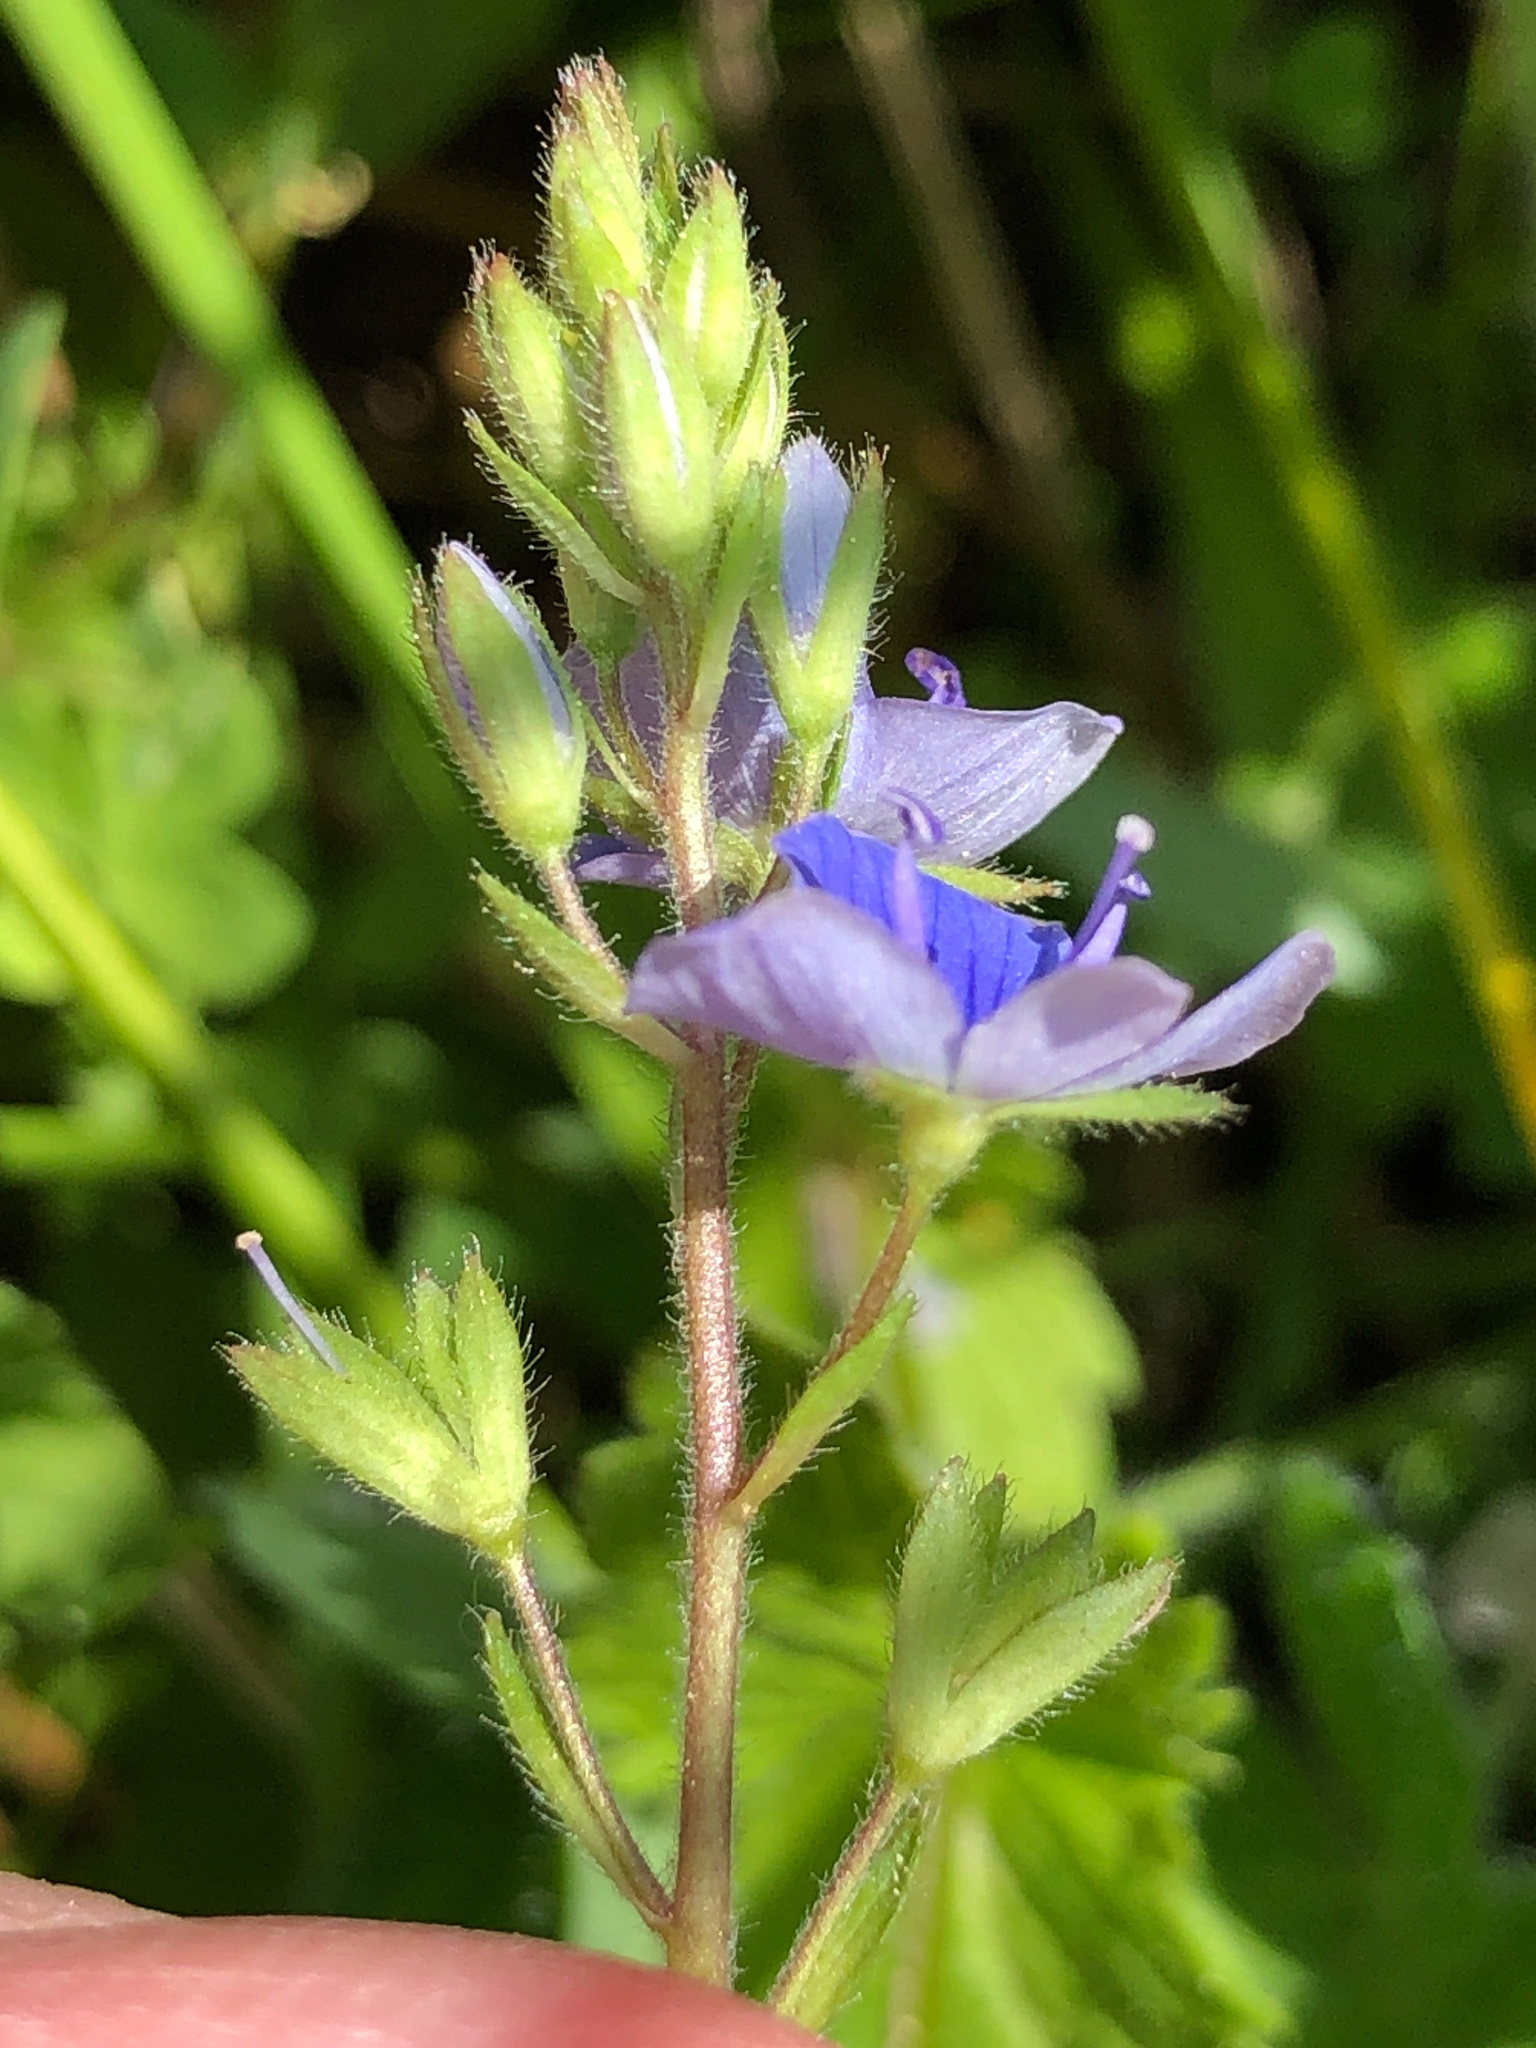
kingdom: Plantae
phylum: Tracheophyta
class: Magnoliopsida
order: Lamiales
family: Plantaginaceae
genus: Veronica
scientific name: Veronica chamaedrys
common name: Germander speedwell
